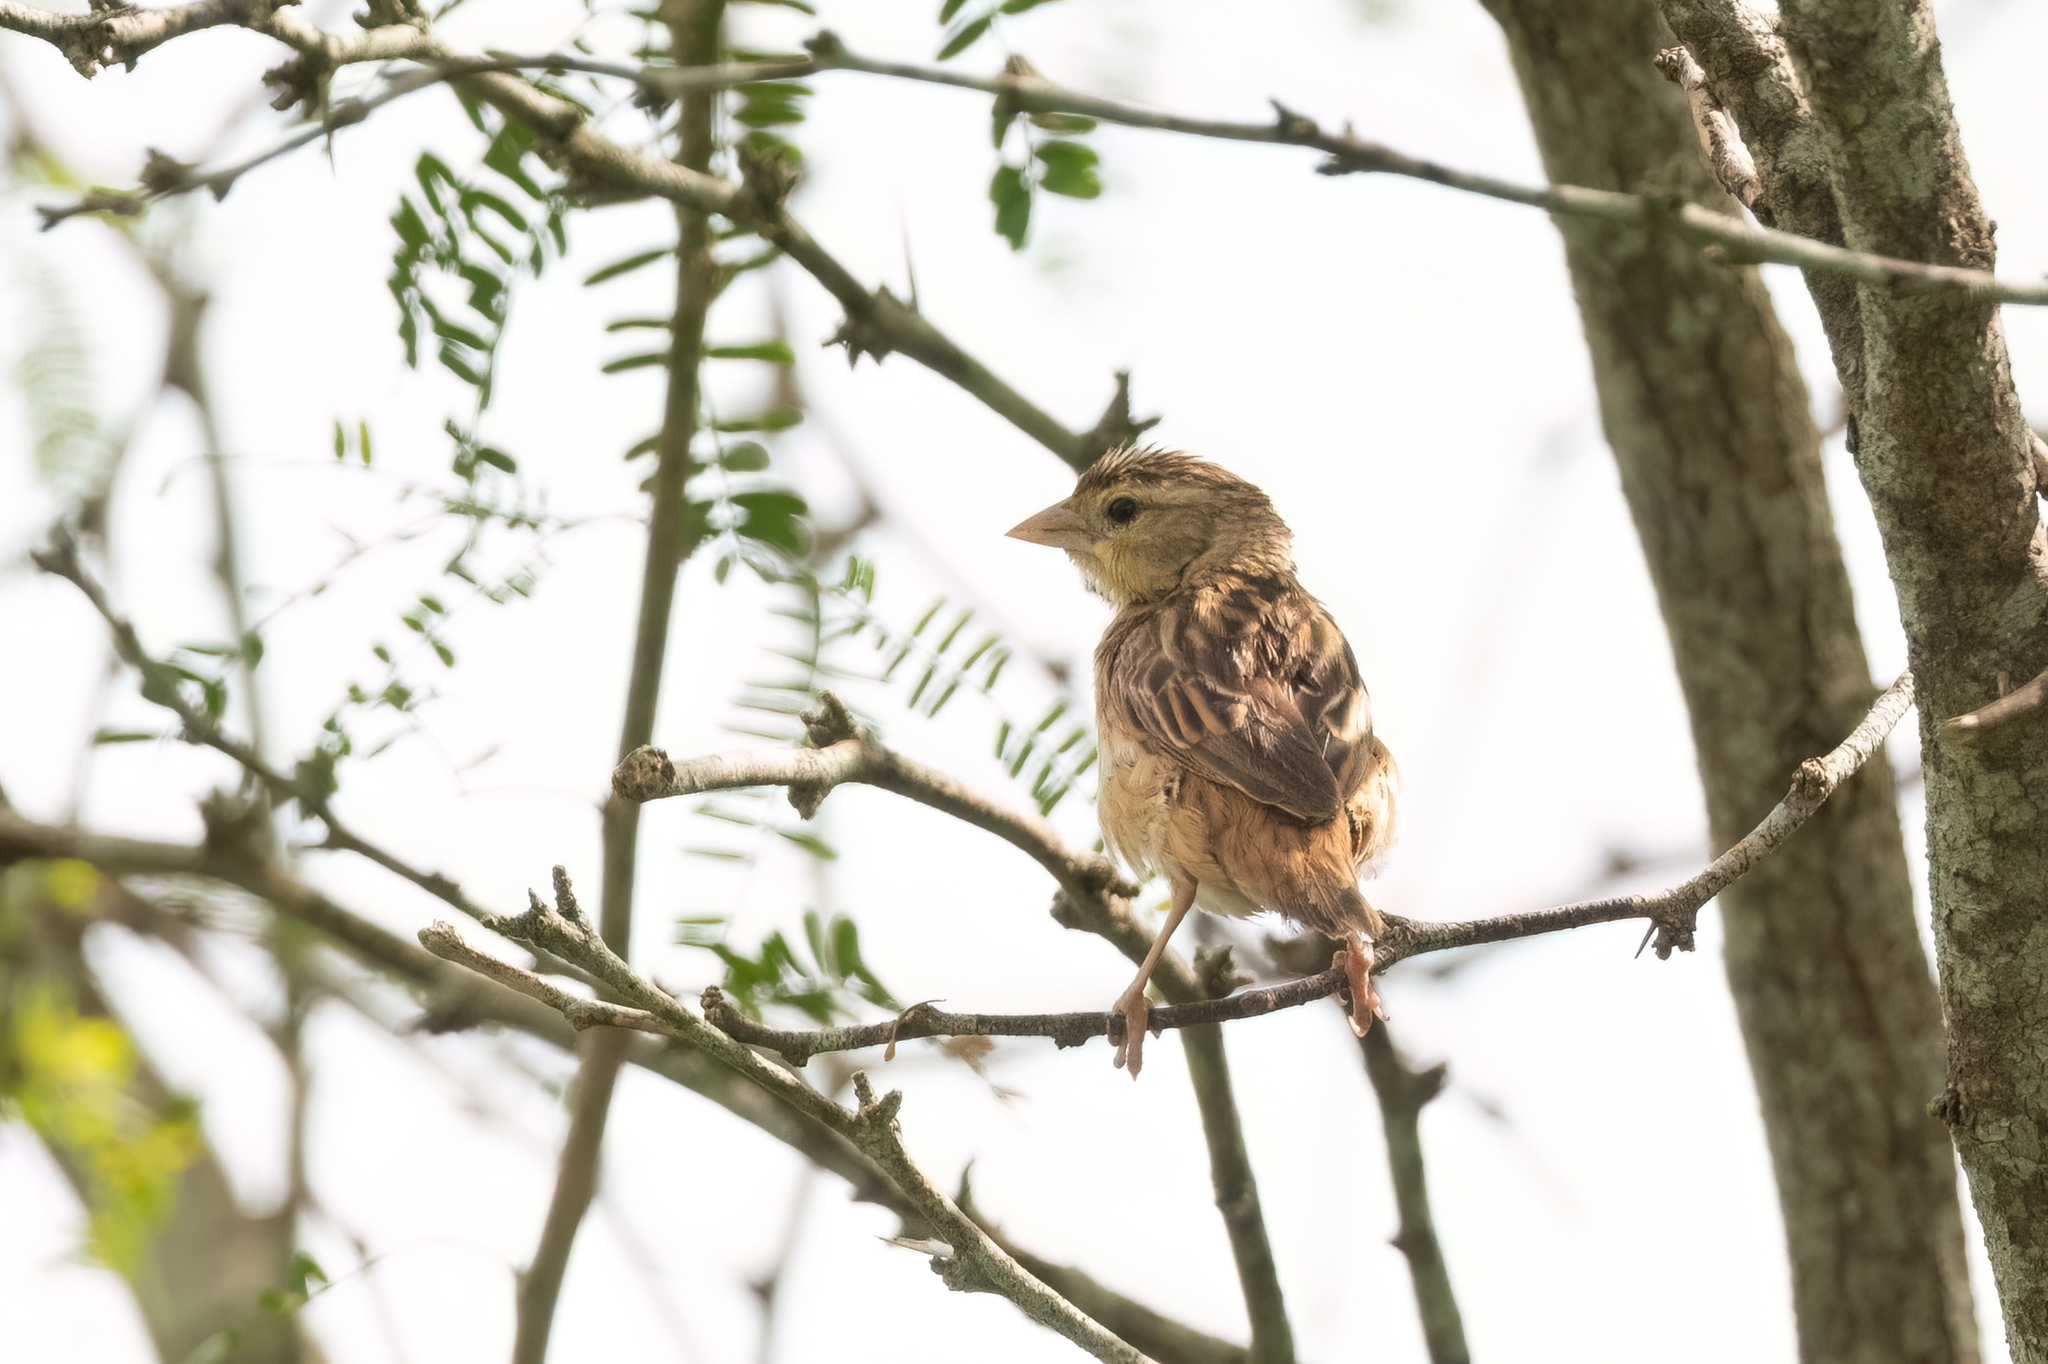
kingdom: Animalia
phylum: Chordata
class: Aves
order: Passeriformes
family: Ploceidae
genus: Euplectes
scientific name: Euplectes franciscanus
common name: Northern red bishop
